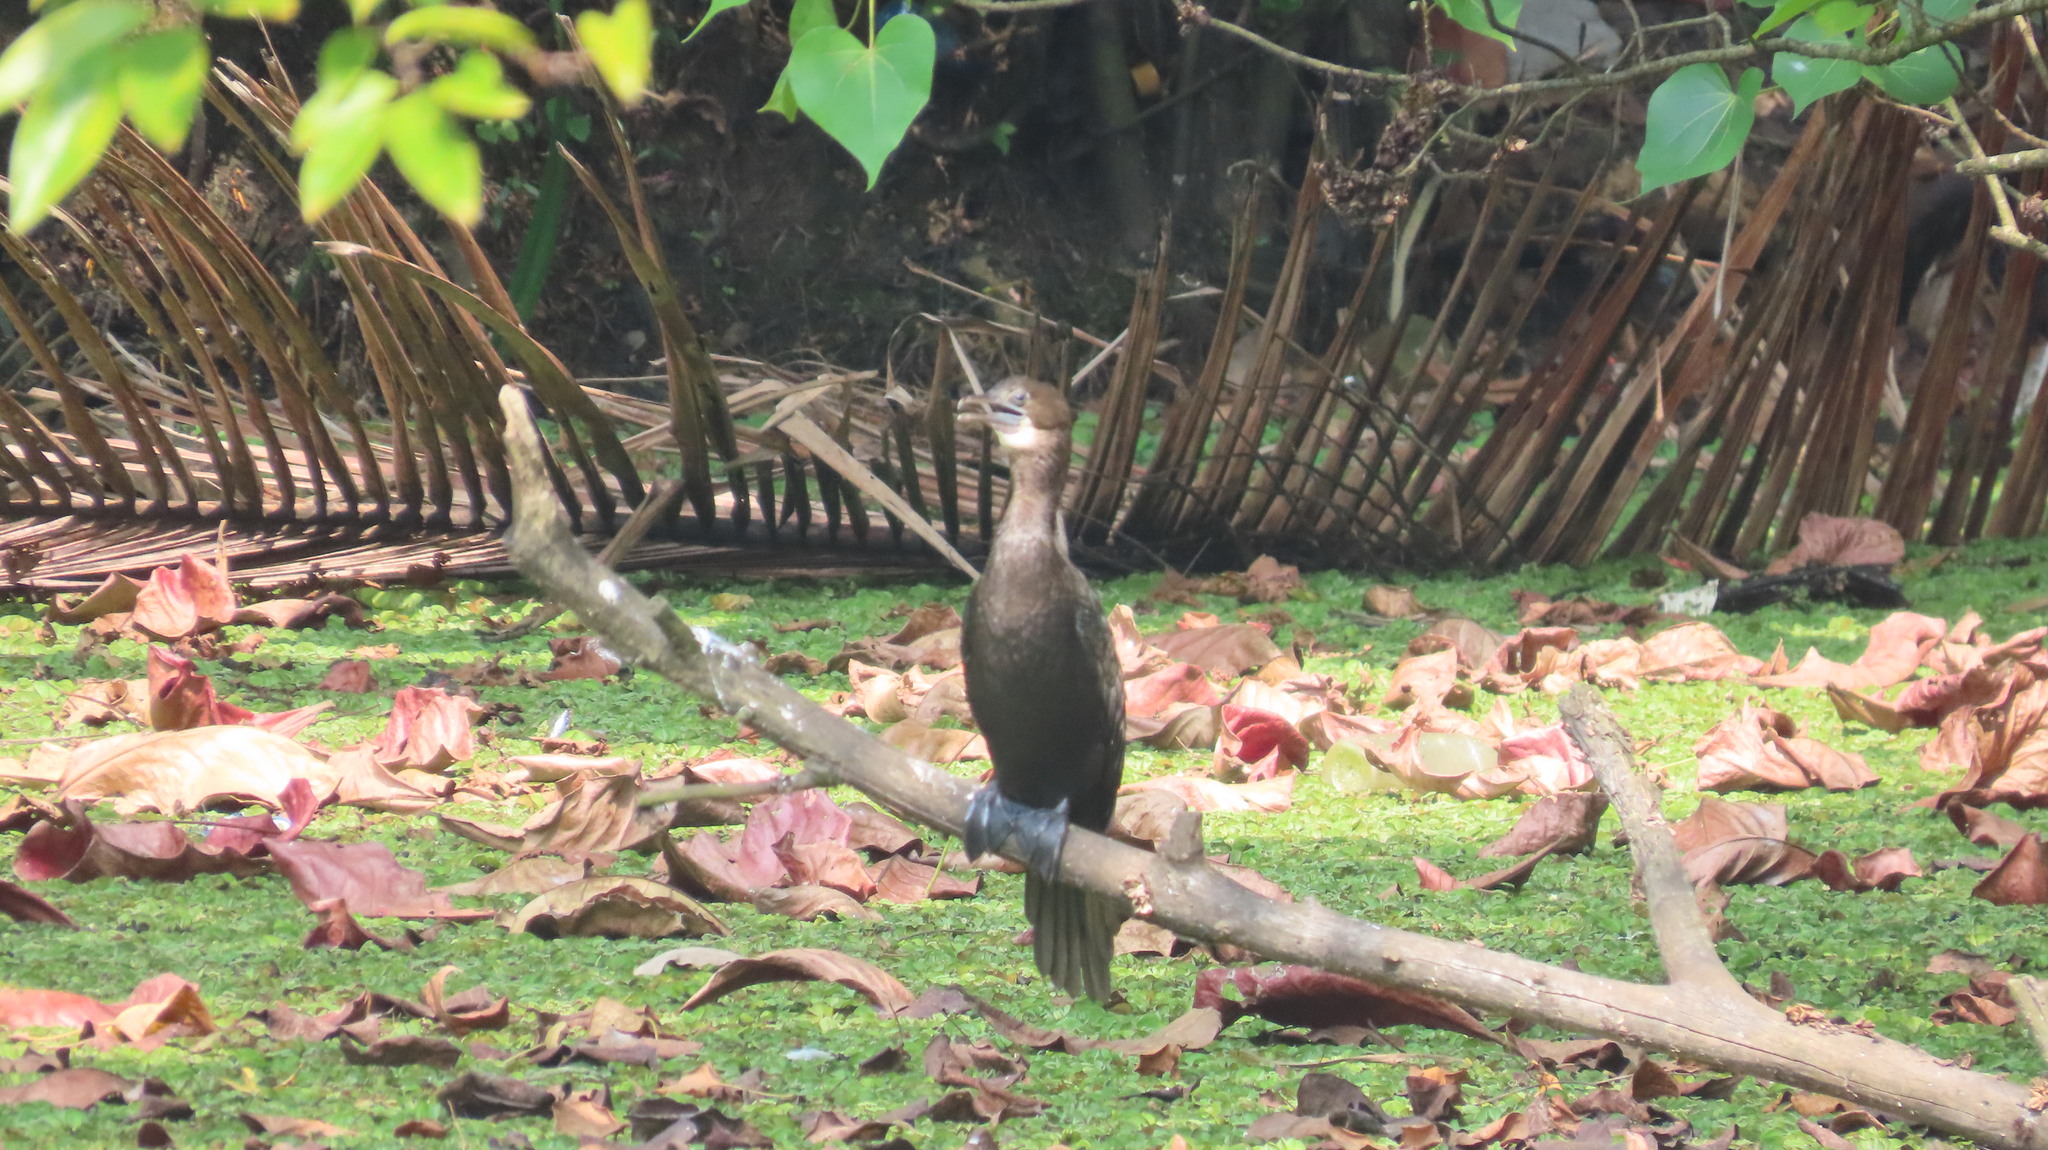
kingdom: Animalia
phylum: Chordata
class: Aves
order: Suliformes
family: Phalacrocoracidae
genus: Microcarbo
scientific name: Microcarbo niger
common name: Little cormorant
